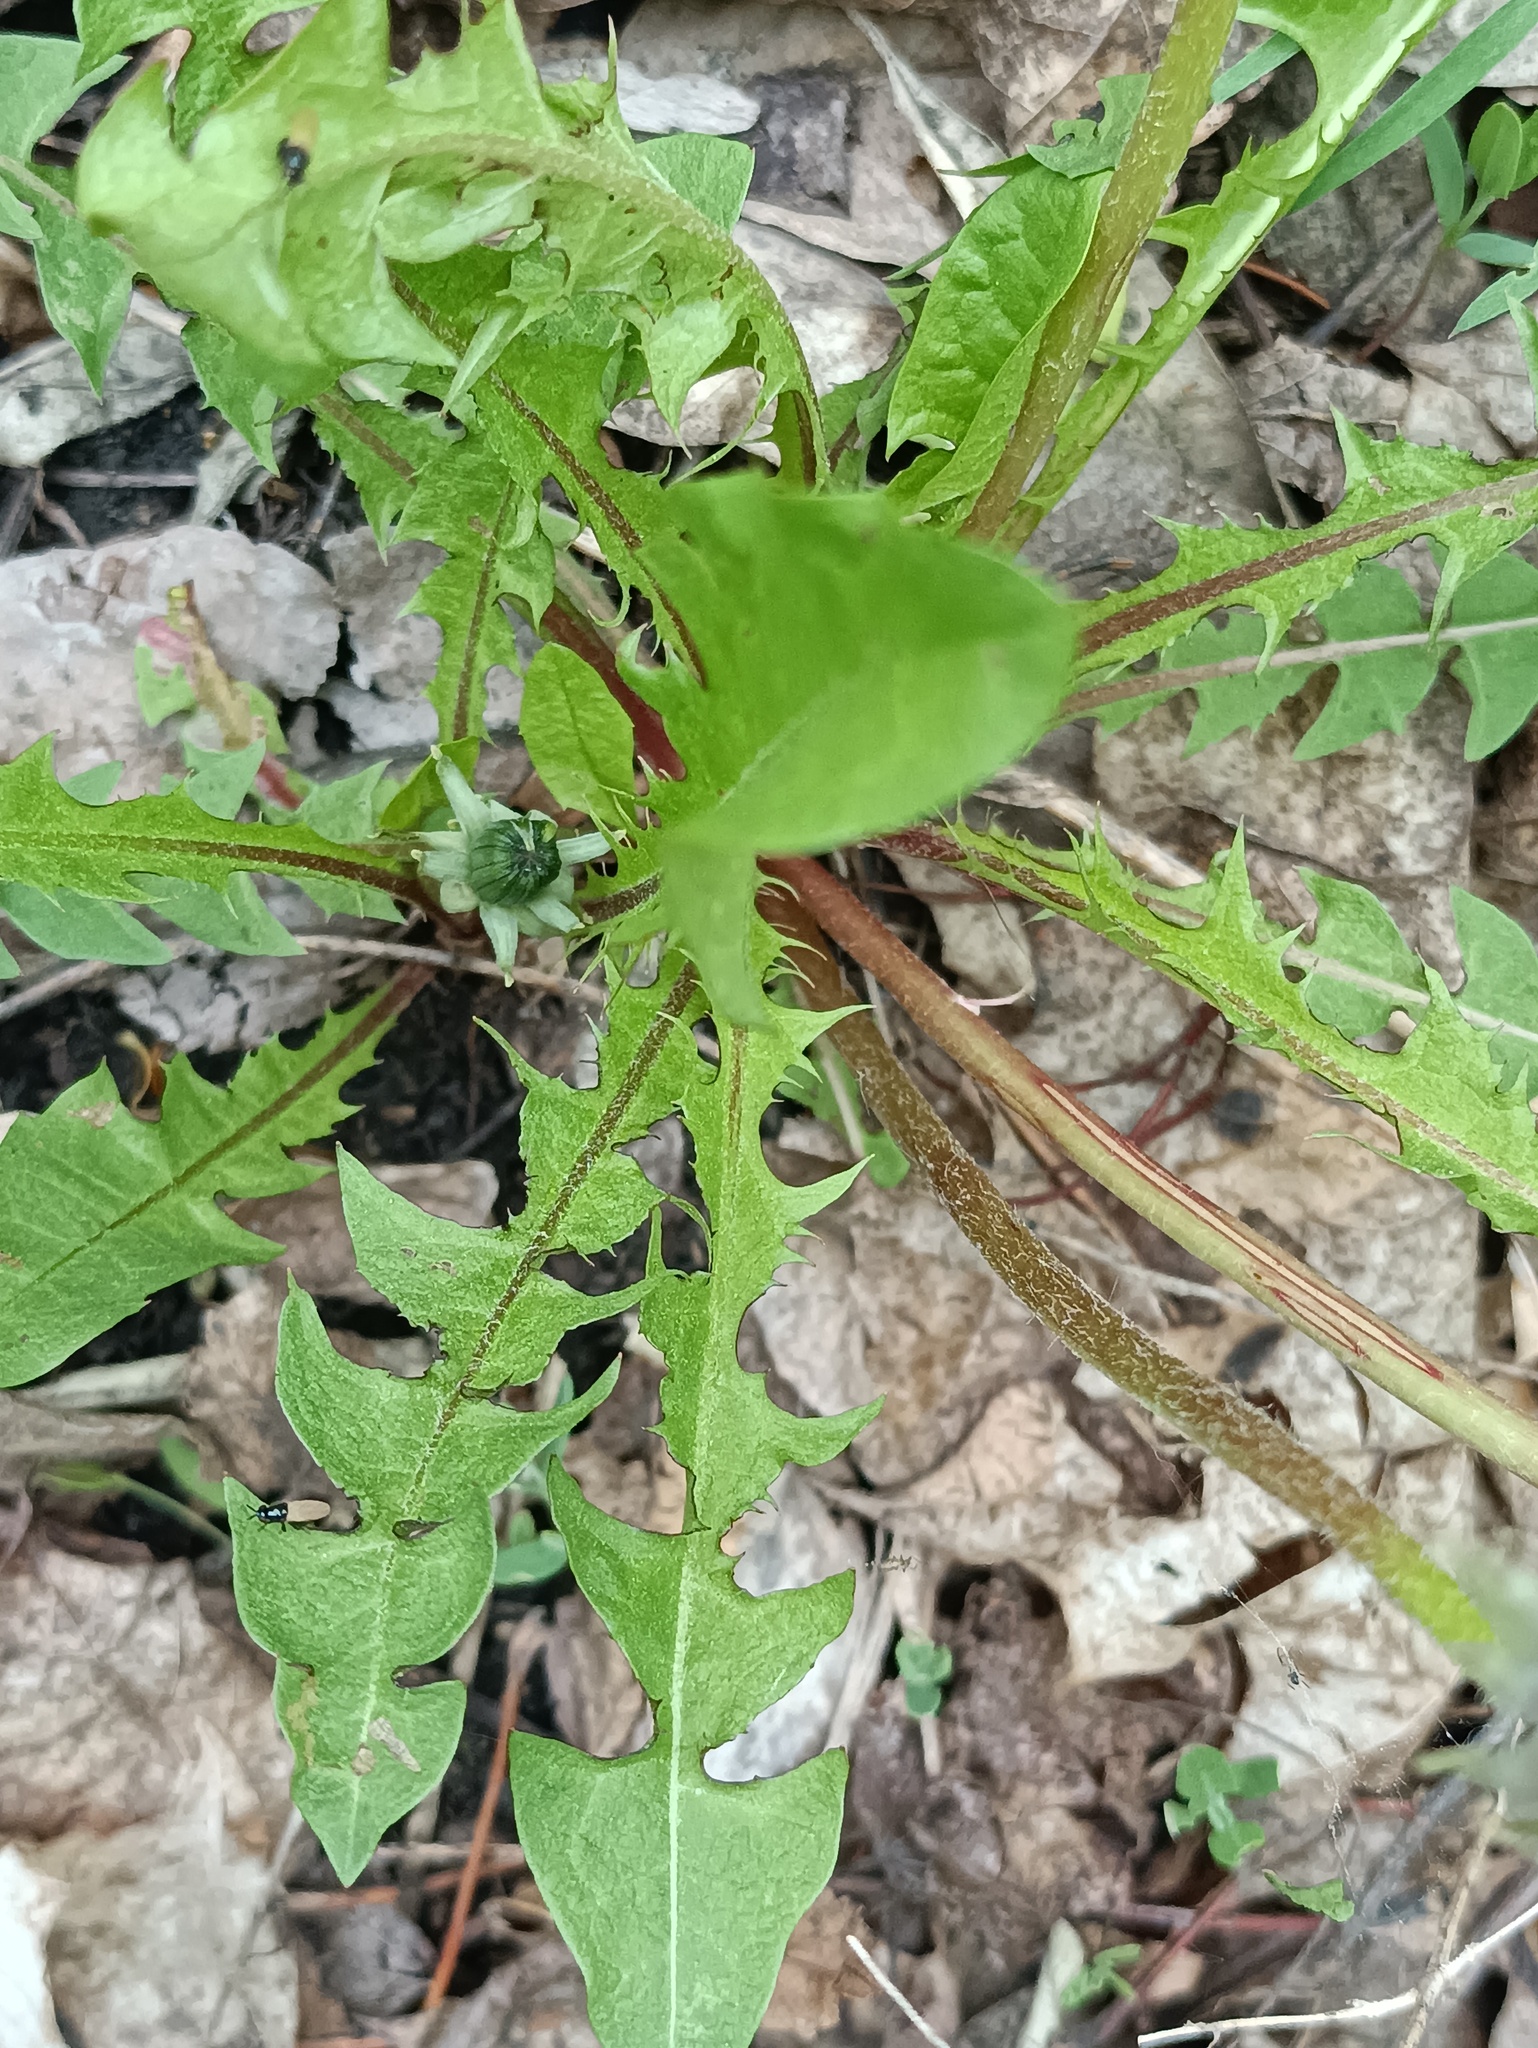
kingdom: Plantae
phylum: Tracheophyta
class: Magnoliopsida
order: Asterales
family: Asteraceae
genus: Taraxacum
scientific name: Taraxacum officinale
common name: Common dandelion
